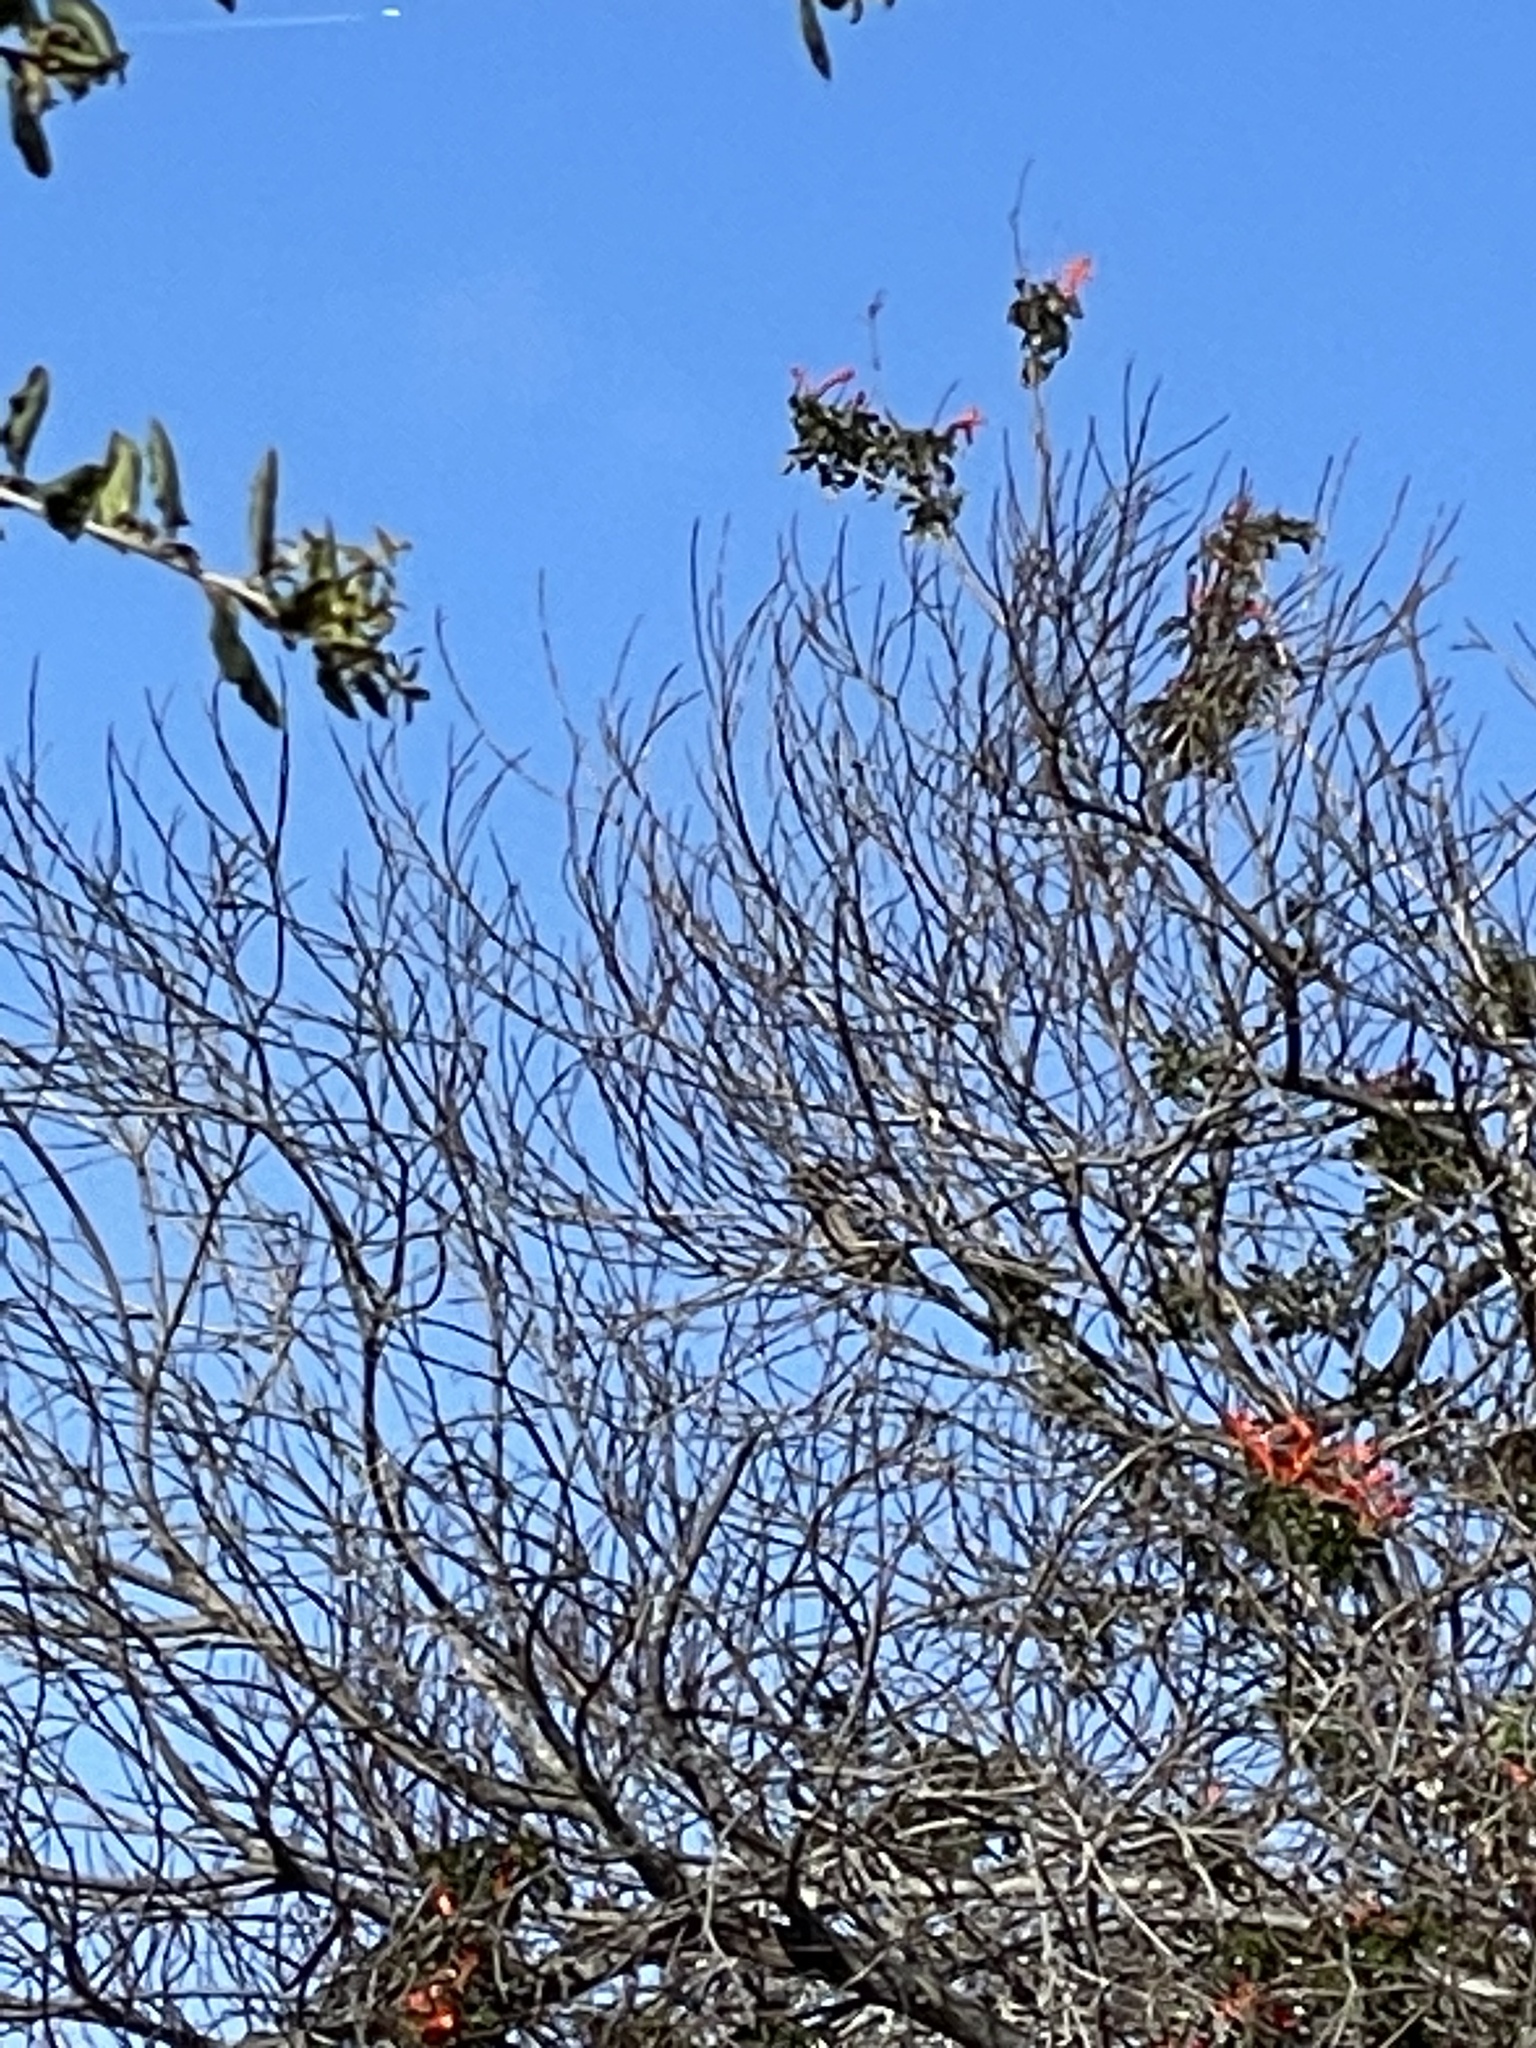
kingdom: Animalia
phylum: Chordata
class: Aves
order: Passeriformes
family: Corvidae
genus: Aphelocoma
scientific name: Aphelocoma californica
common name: California scrub-jay
